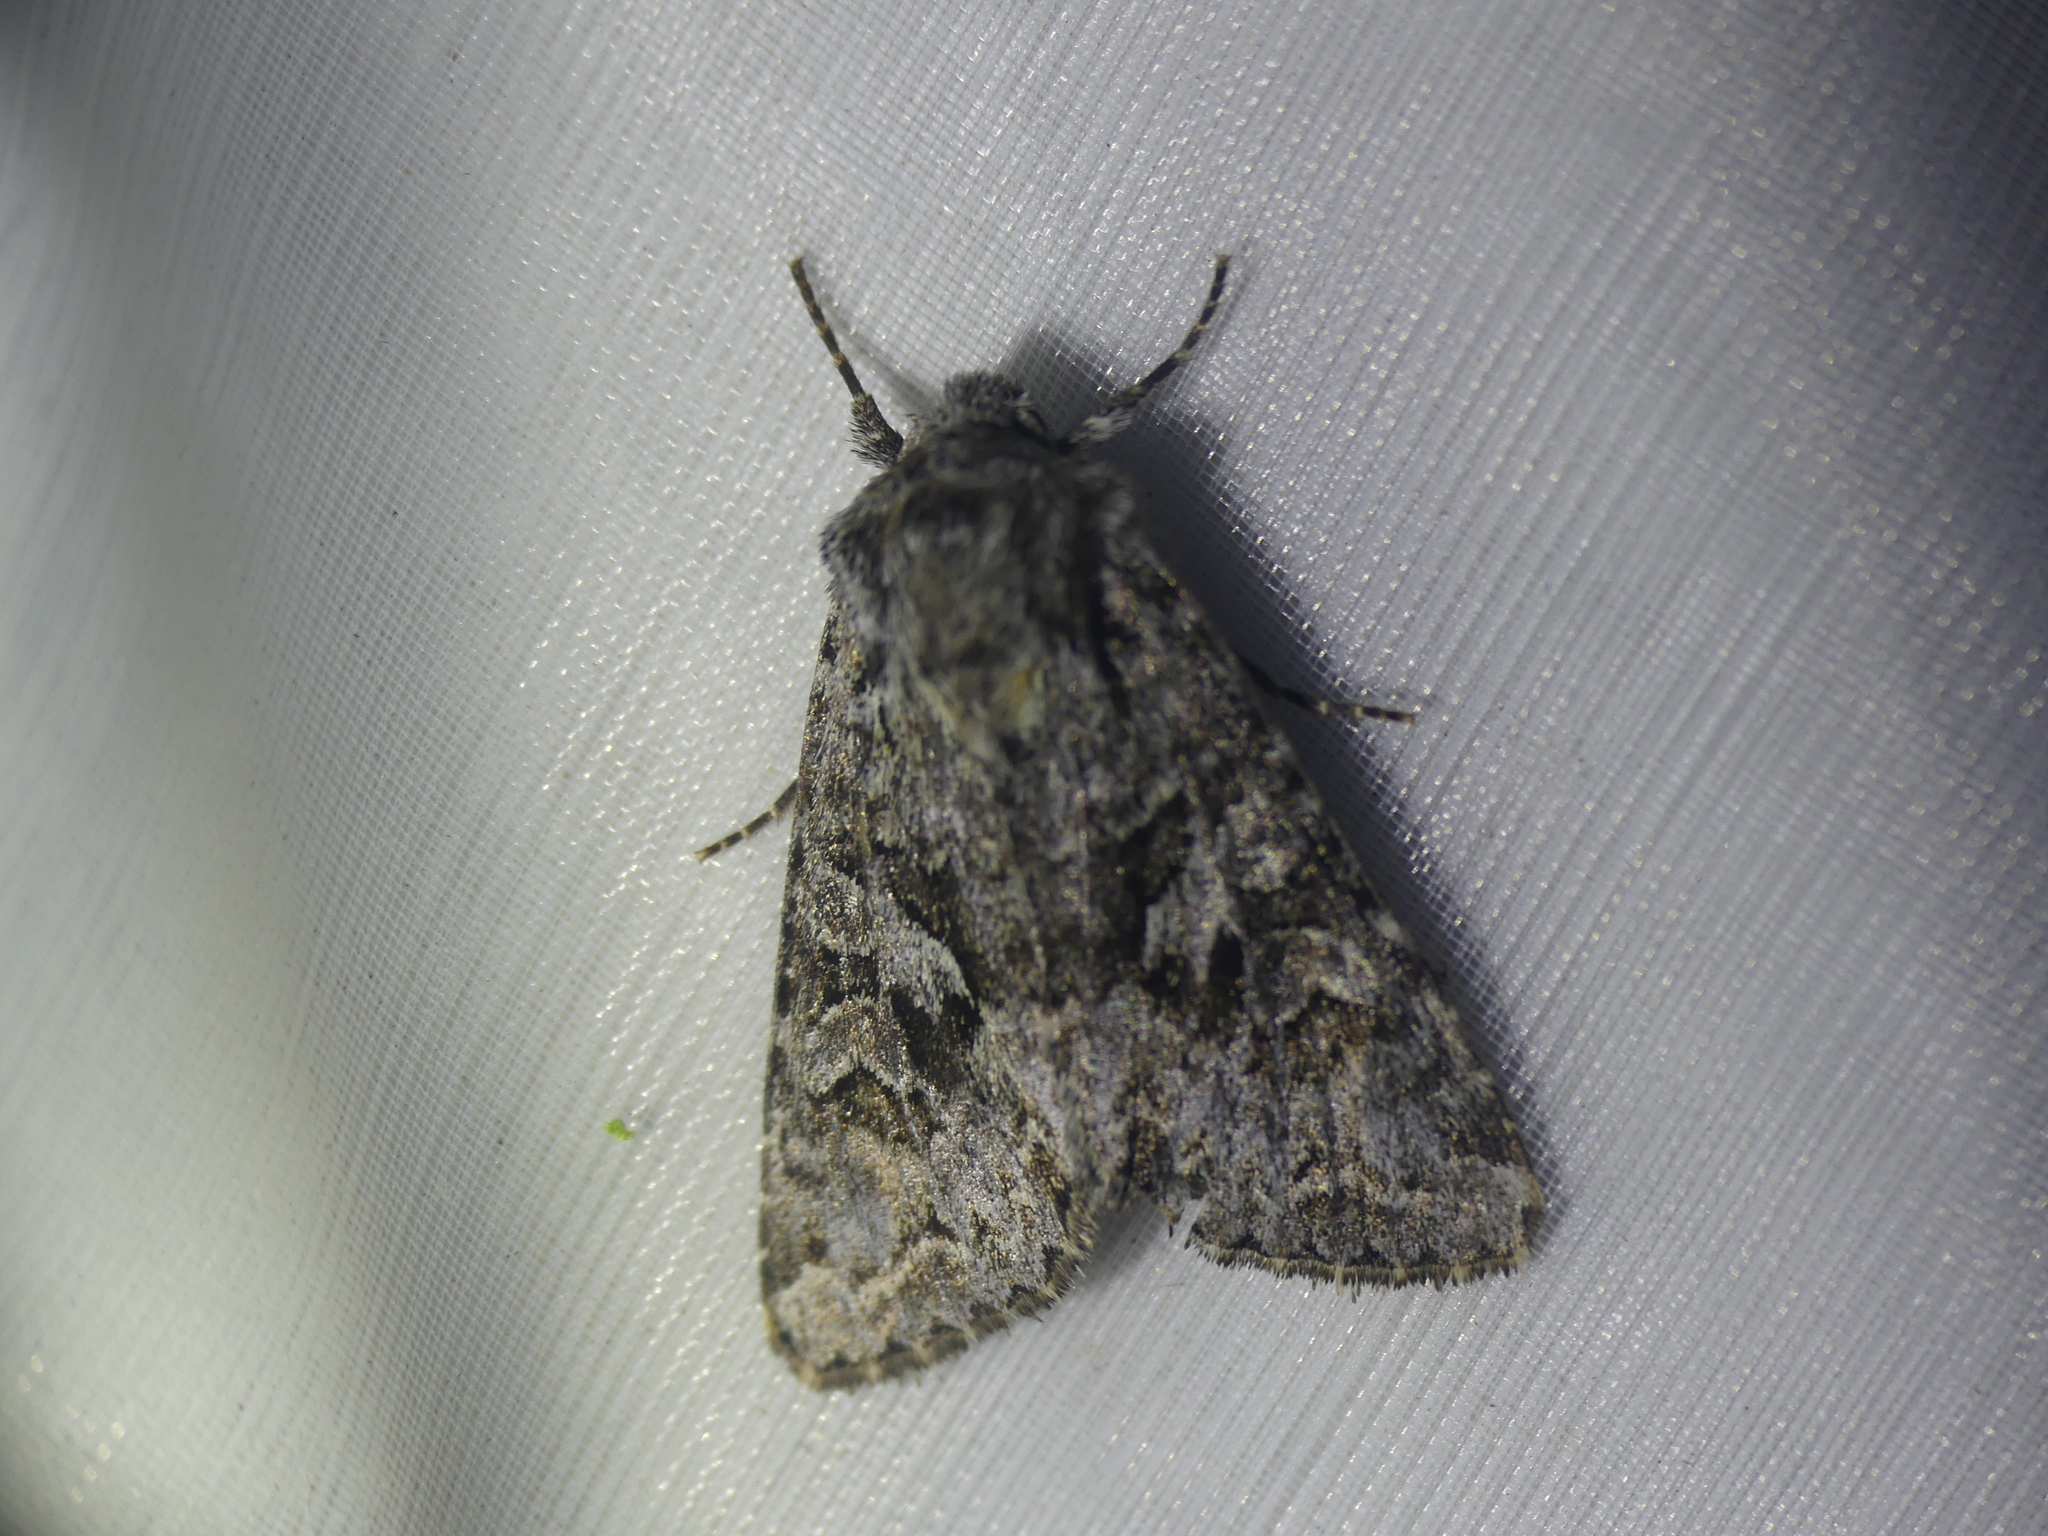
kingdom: Animalia
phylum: Arthropoda
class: Insecta
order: Lepidoptera
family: Noctuidae
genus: Hada
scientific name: Hada plebeja
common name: Shears
